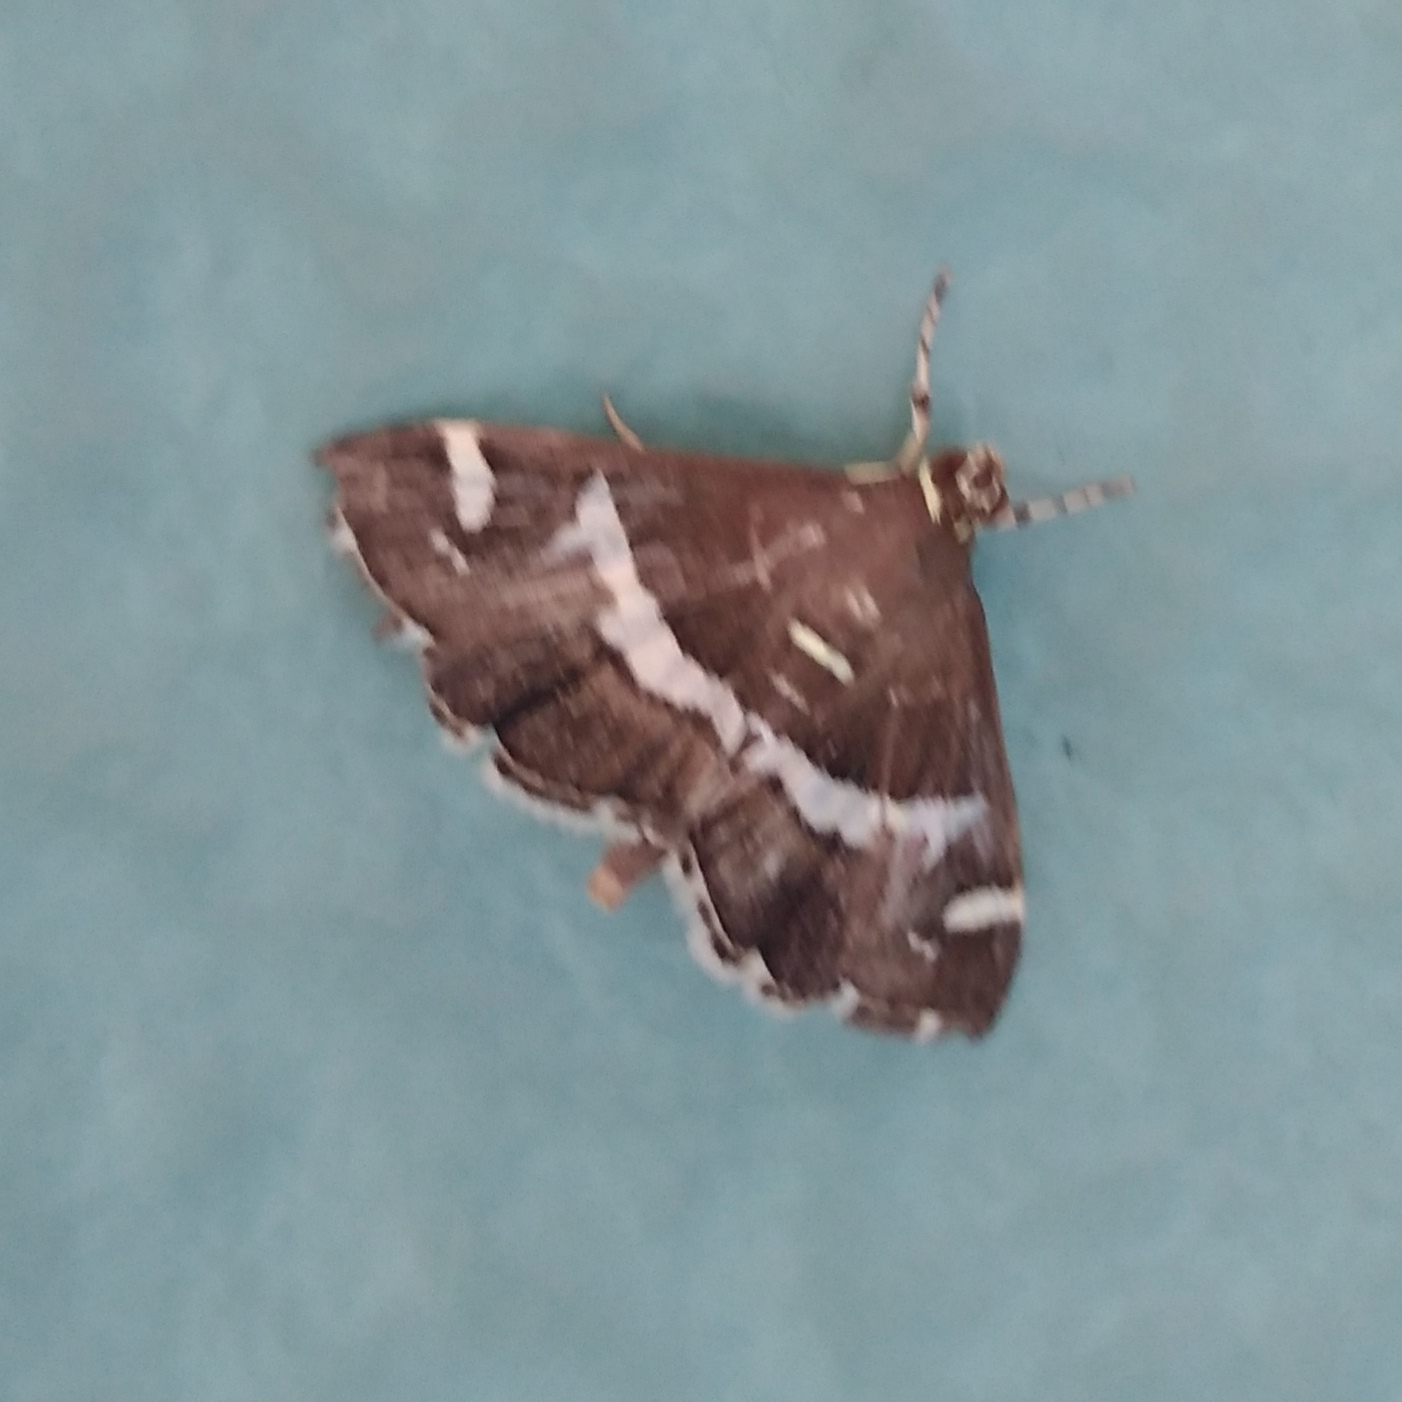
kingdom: Animalia
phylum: Arthropoda
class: Insecta
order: Lepidoptera
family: Crambidae
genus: Spoladea
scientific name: Spoladea recurvalis
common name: Beet webworm moth
